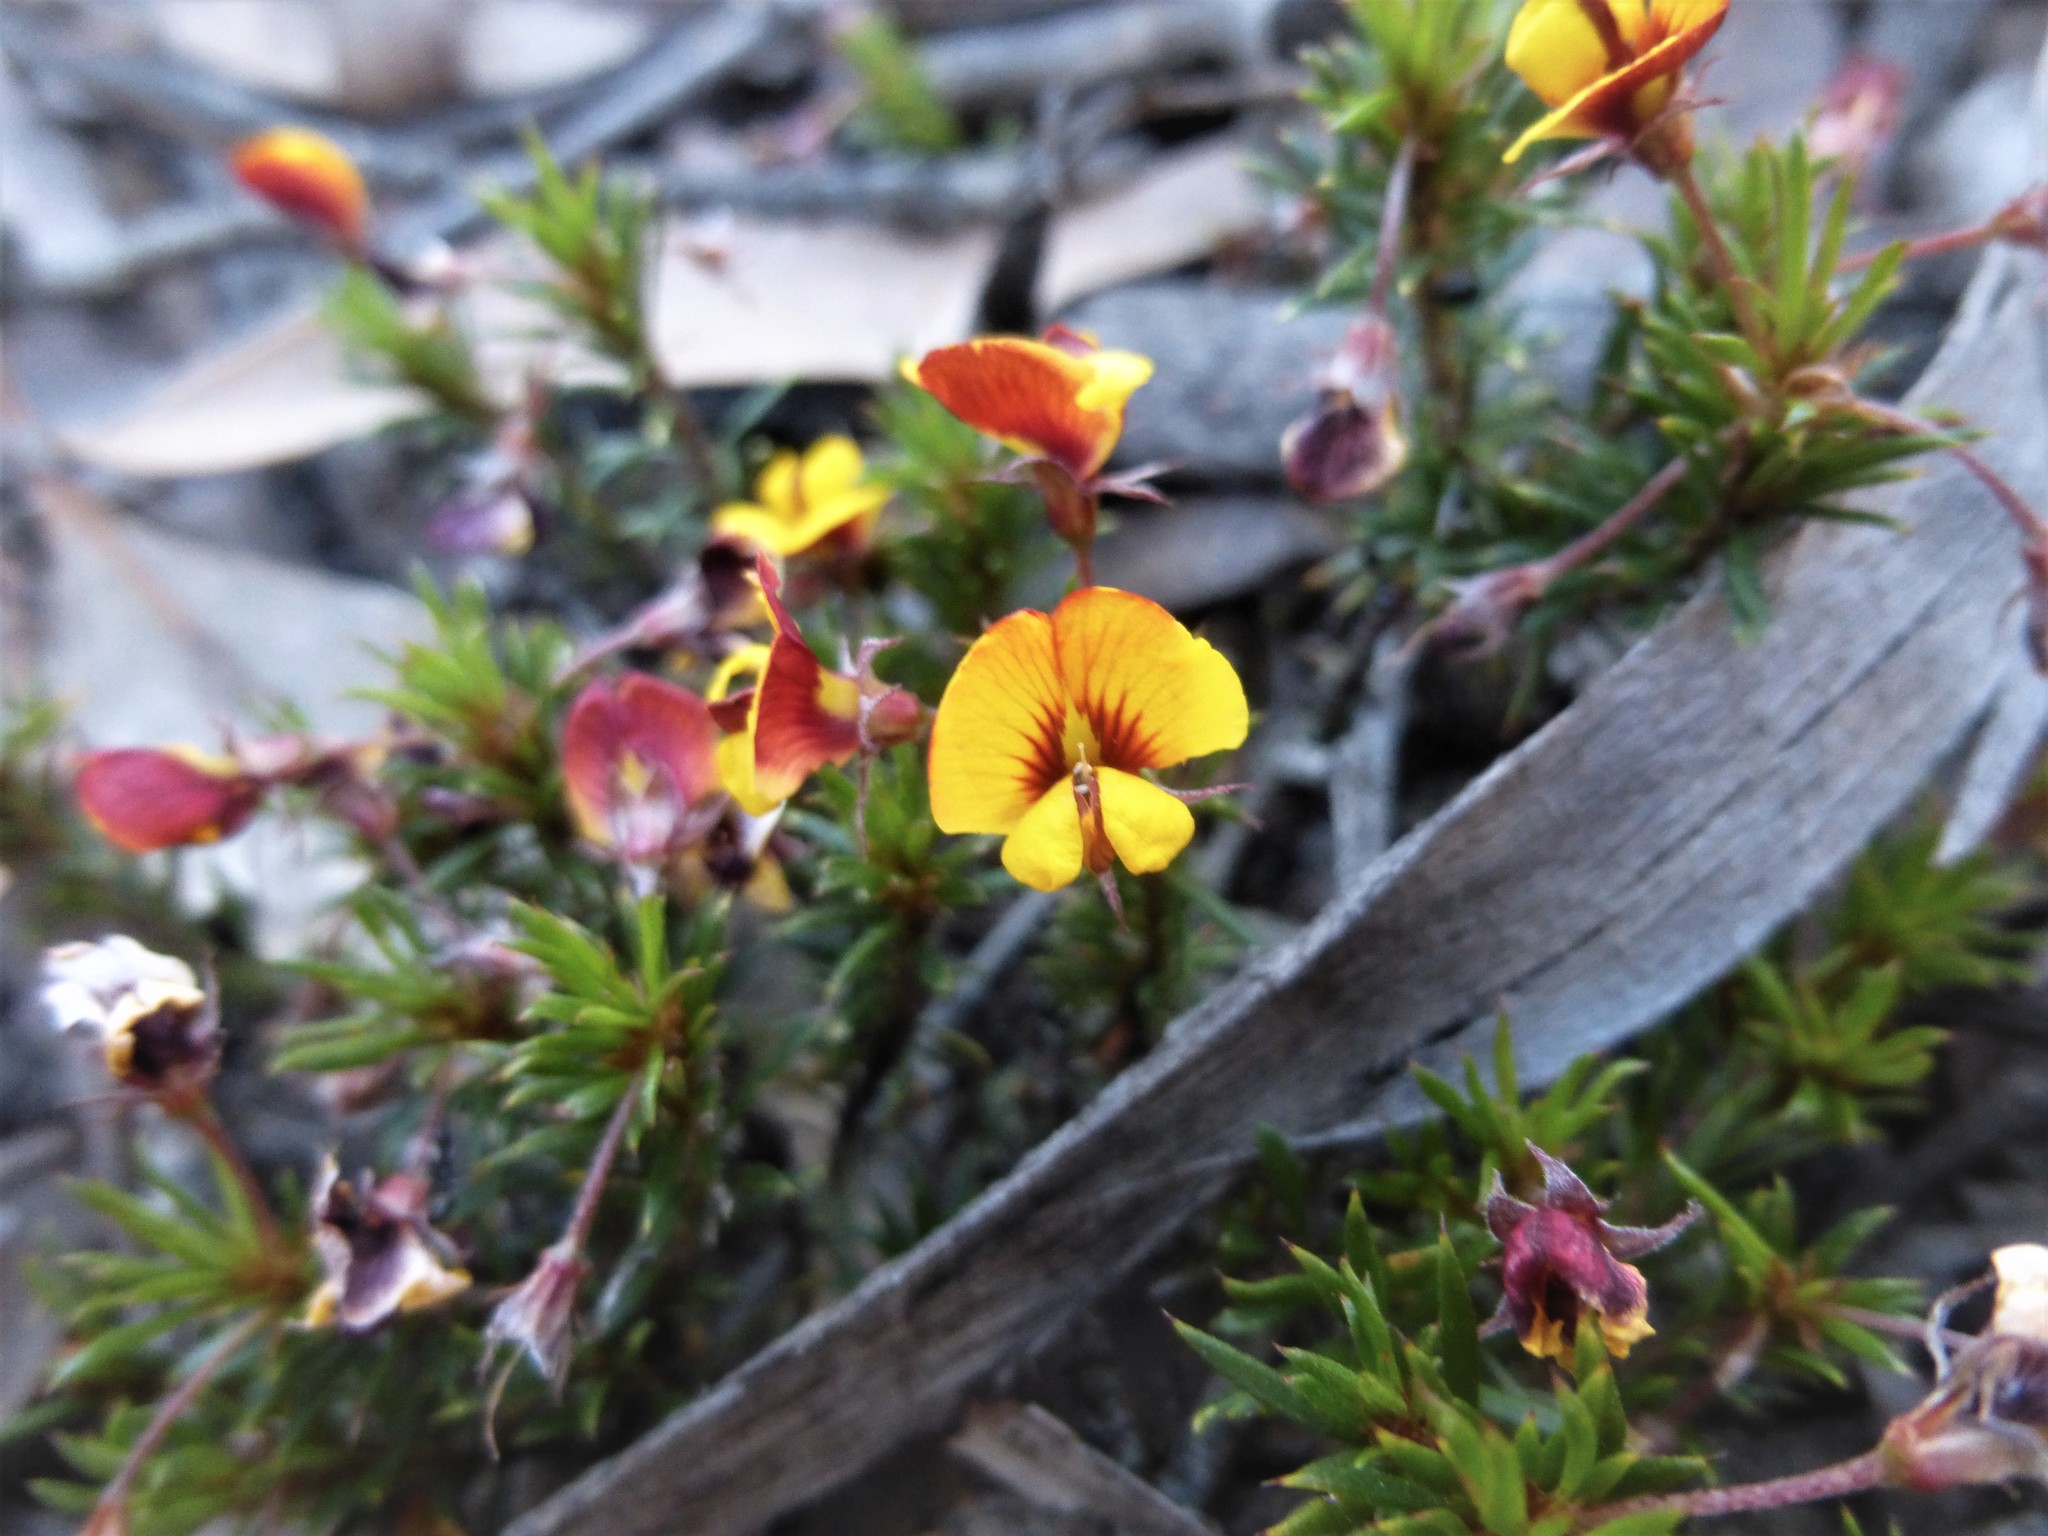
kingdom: Plantae
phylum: Tracheophyta
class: Magnoliopsida
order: Fabales
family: Fabaceae
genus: Pultenaea
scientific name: Pultenaea pedunculata
